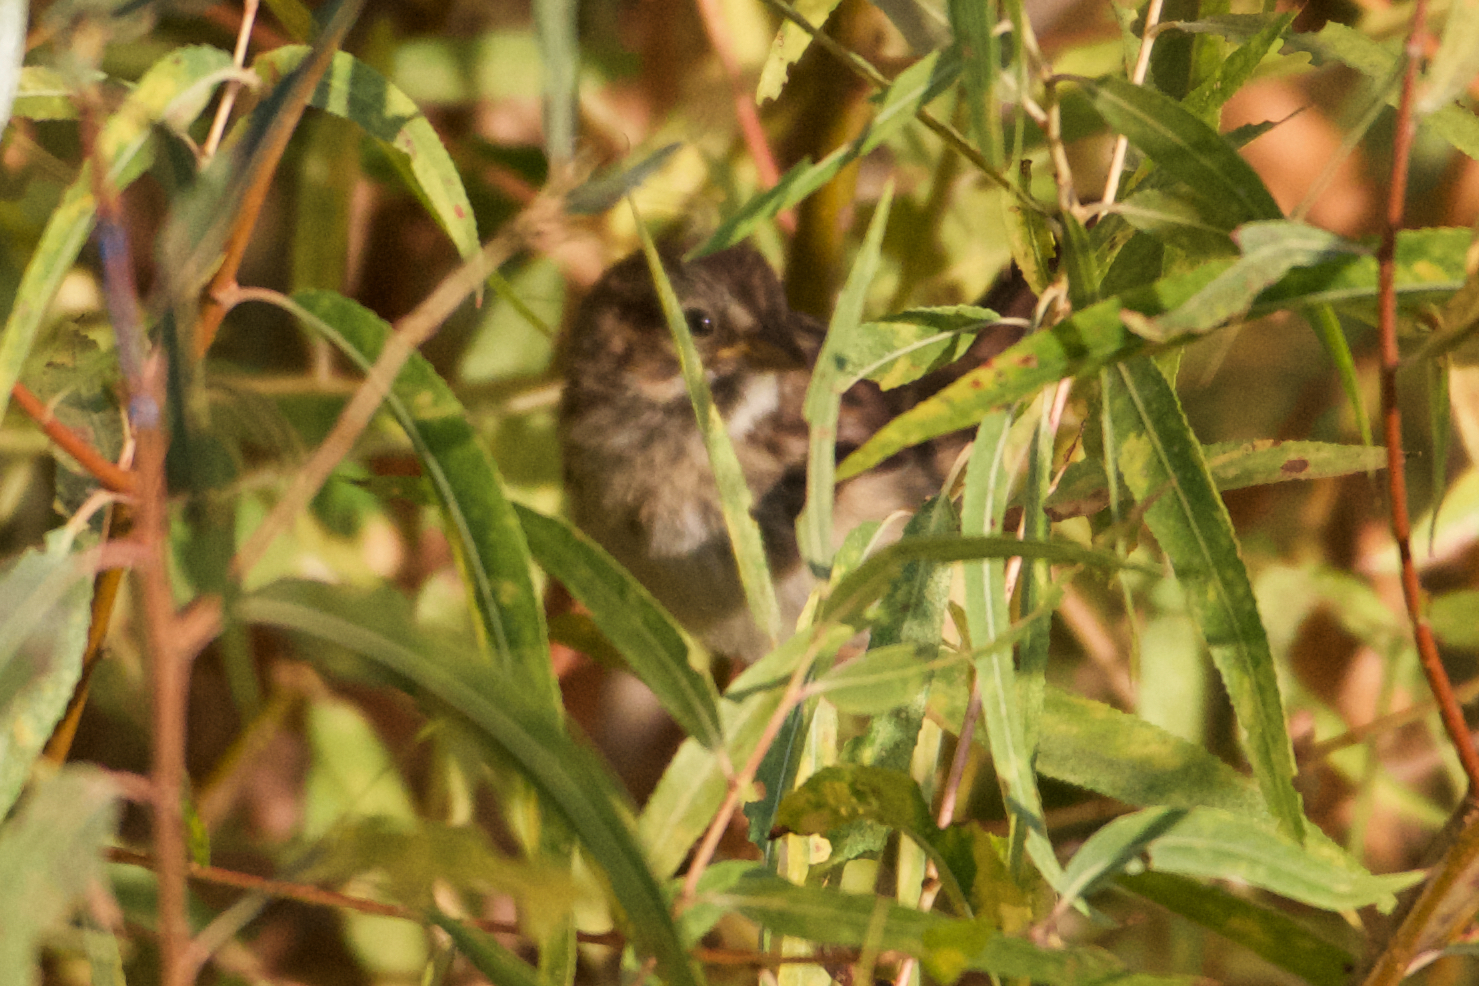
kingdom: Animalia
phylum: Chordata
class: Aves
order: Passeriformes
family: Passerellidae
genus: Melospiza
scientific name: Melospiza melodia
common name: Song sparrow
